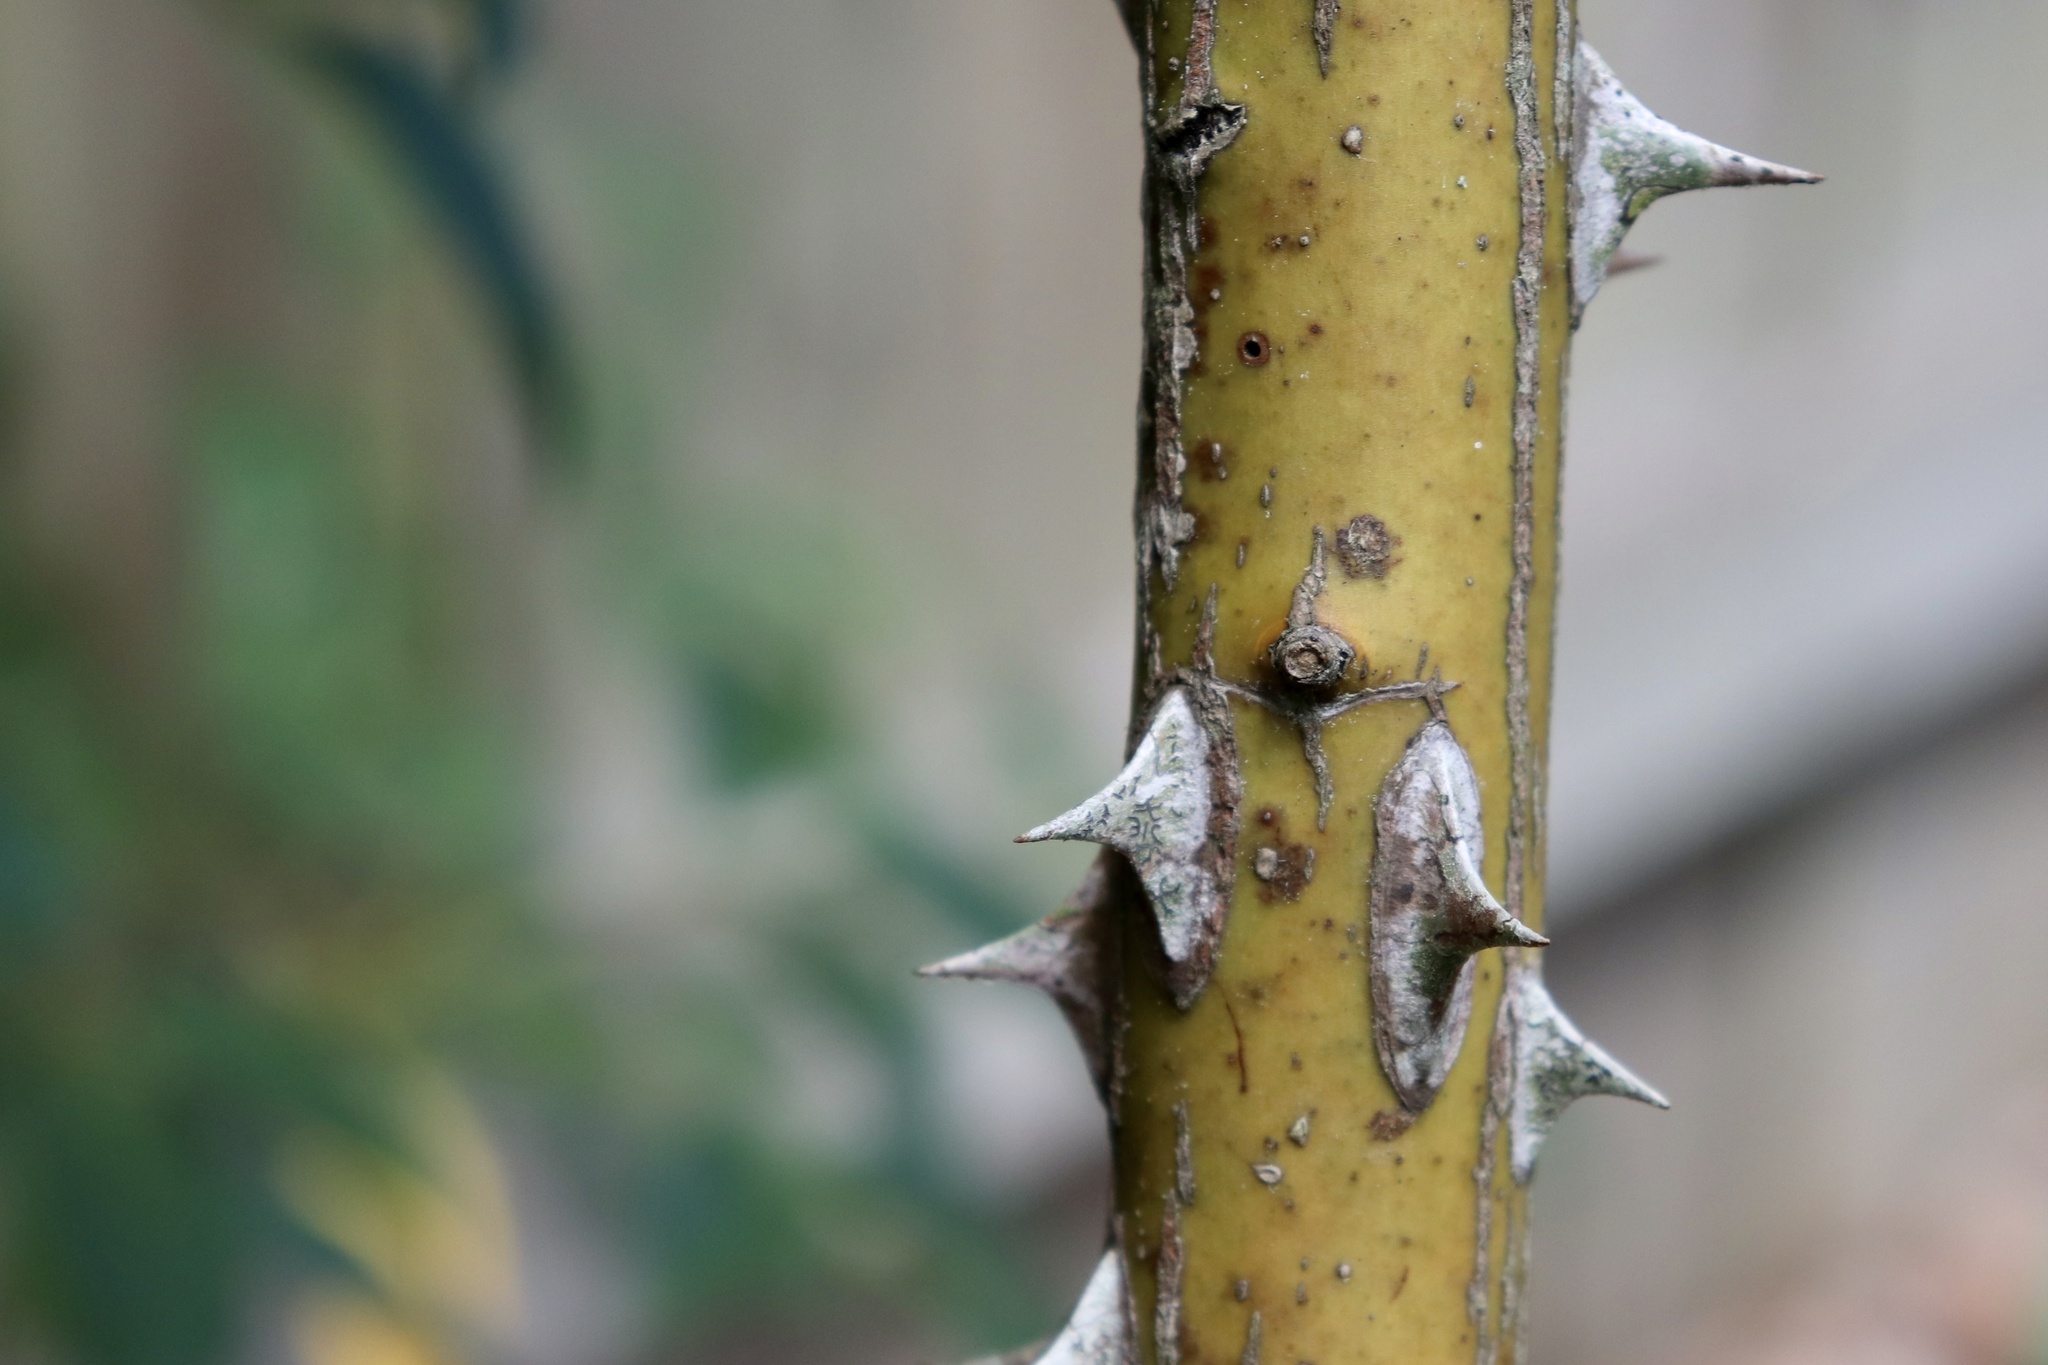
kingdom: Plantae
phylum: Tracheophyta
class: Magnoliopsida
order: Rosales
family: Rosaceae
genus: Rosa
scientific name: Rosa laevigata
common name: Cherokee rose
